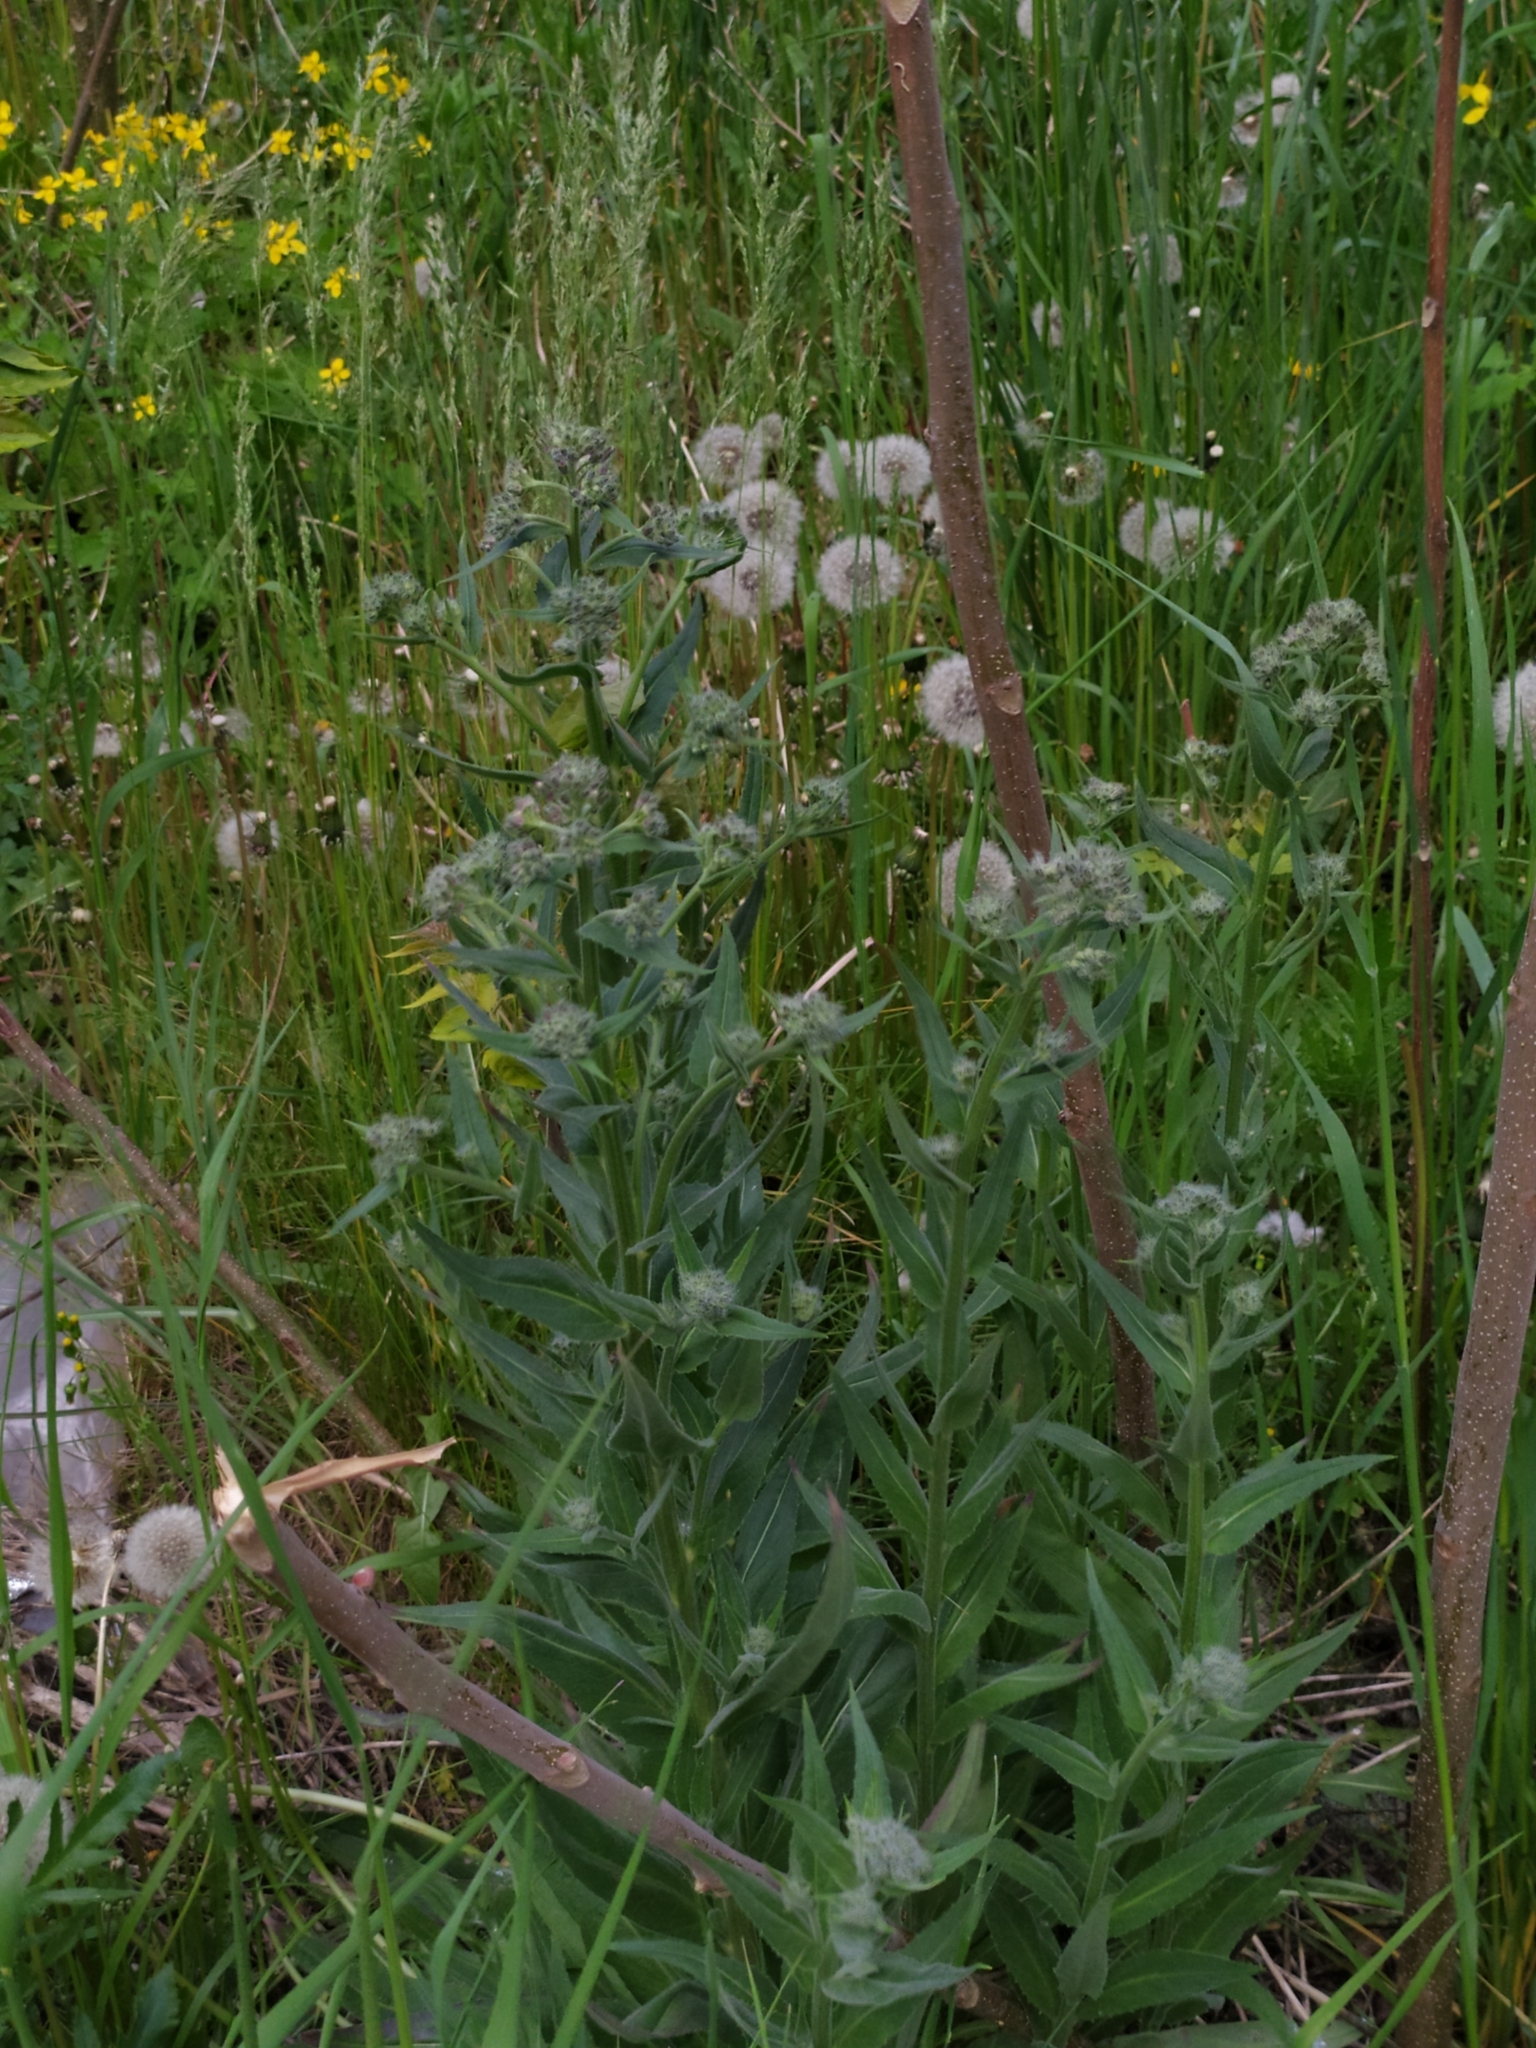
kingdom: Plantae
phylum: Tracheophyta
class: Magnoliopsida
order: Brassicales
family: Brassicaceae
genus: Hesperis
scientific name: Hesperis matronalis
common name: Dame's-violet
